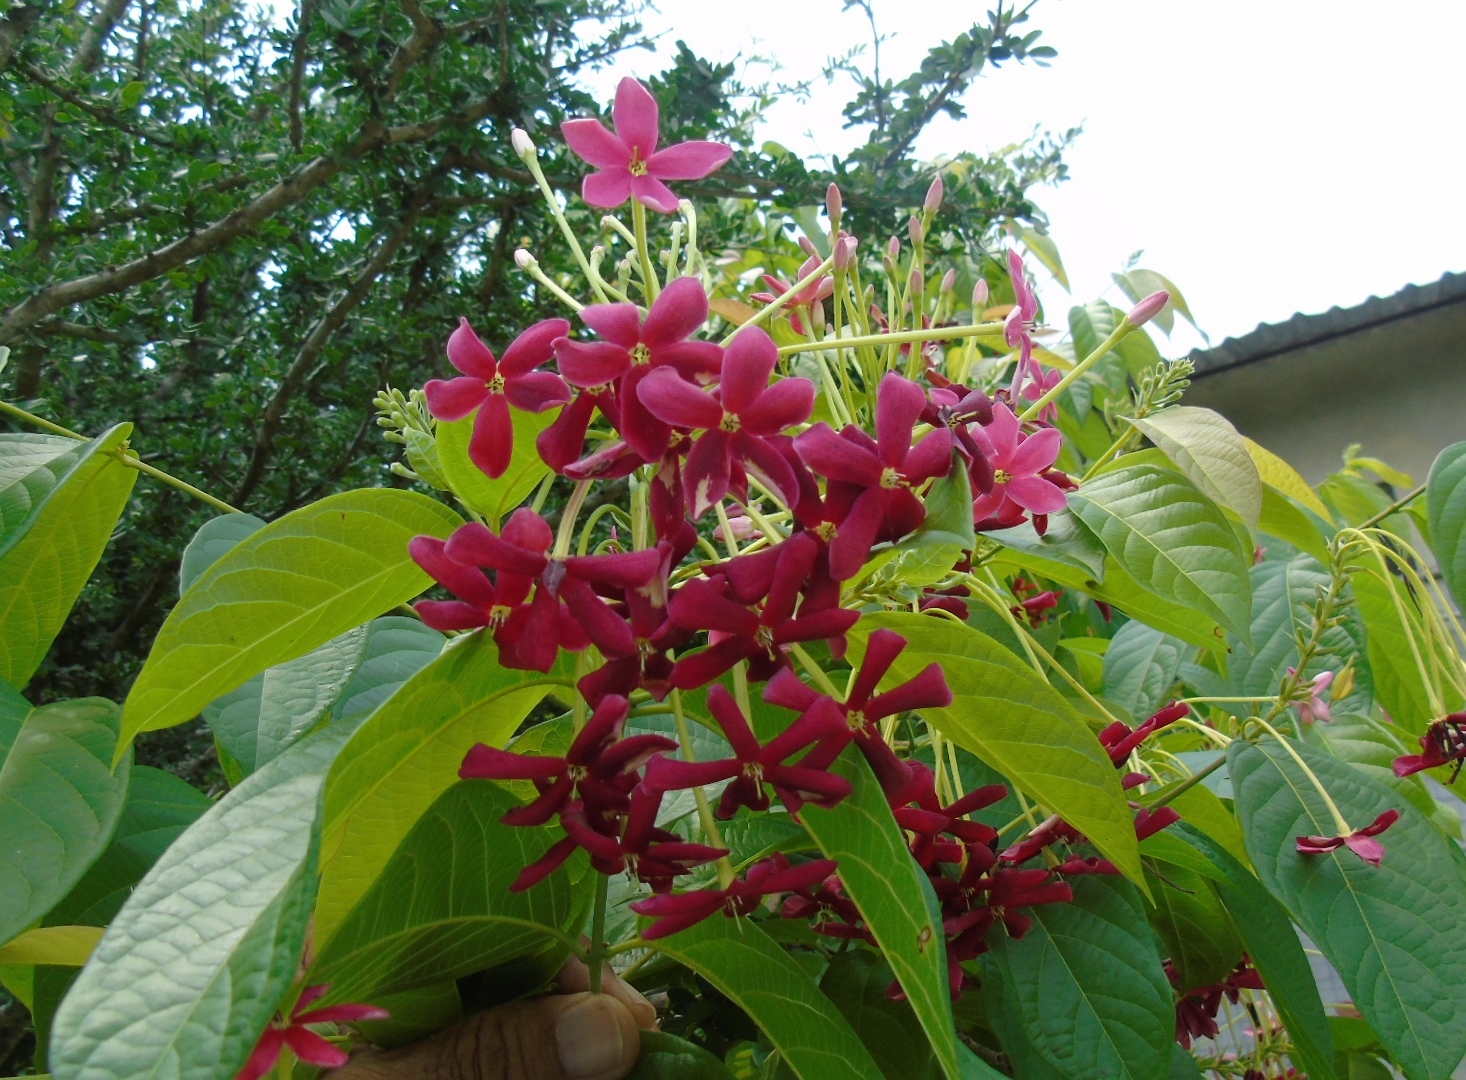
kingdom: Plantae
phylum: Tracheophyta
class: Magnoliopsida
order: Myrtales
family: Combretaceae
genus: Combretum
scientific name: Combretum indicum
